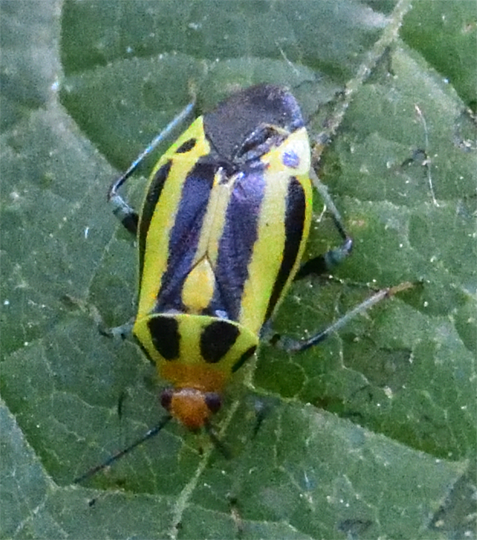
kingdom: Animalia
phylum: Arthropoda
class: Insecta
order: Hemiptera
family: Miridae
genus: Poecilocapsus
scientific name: Poecilocapsus lineatus
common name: Four-lined plant bug
